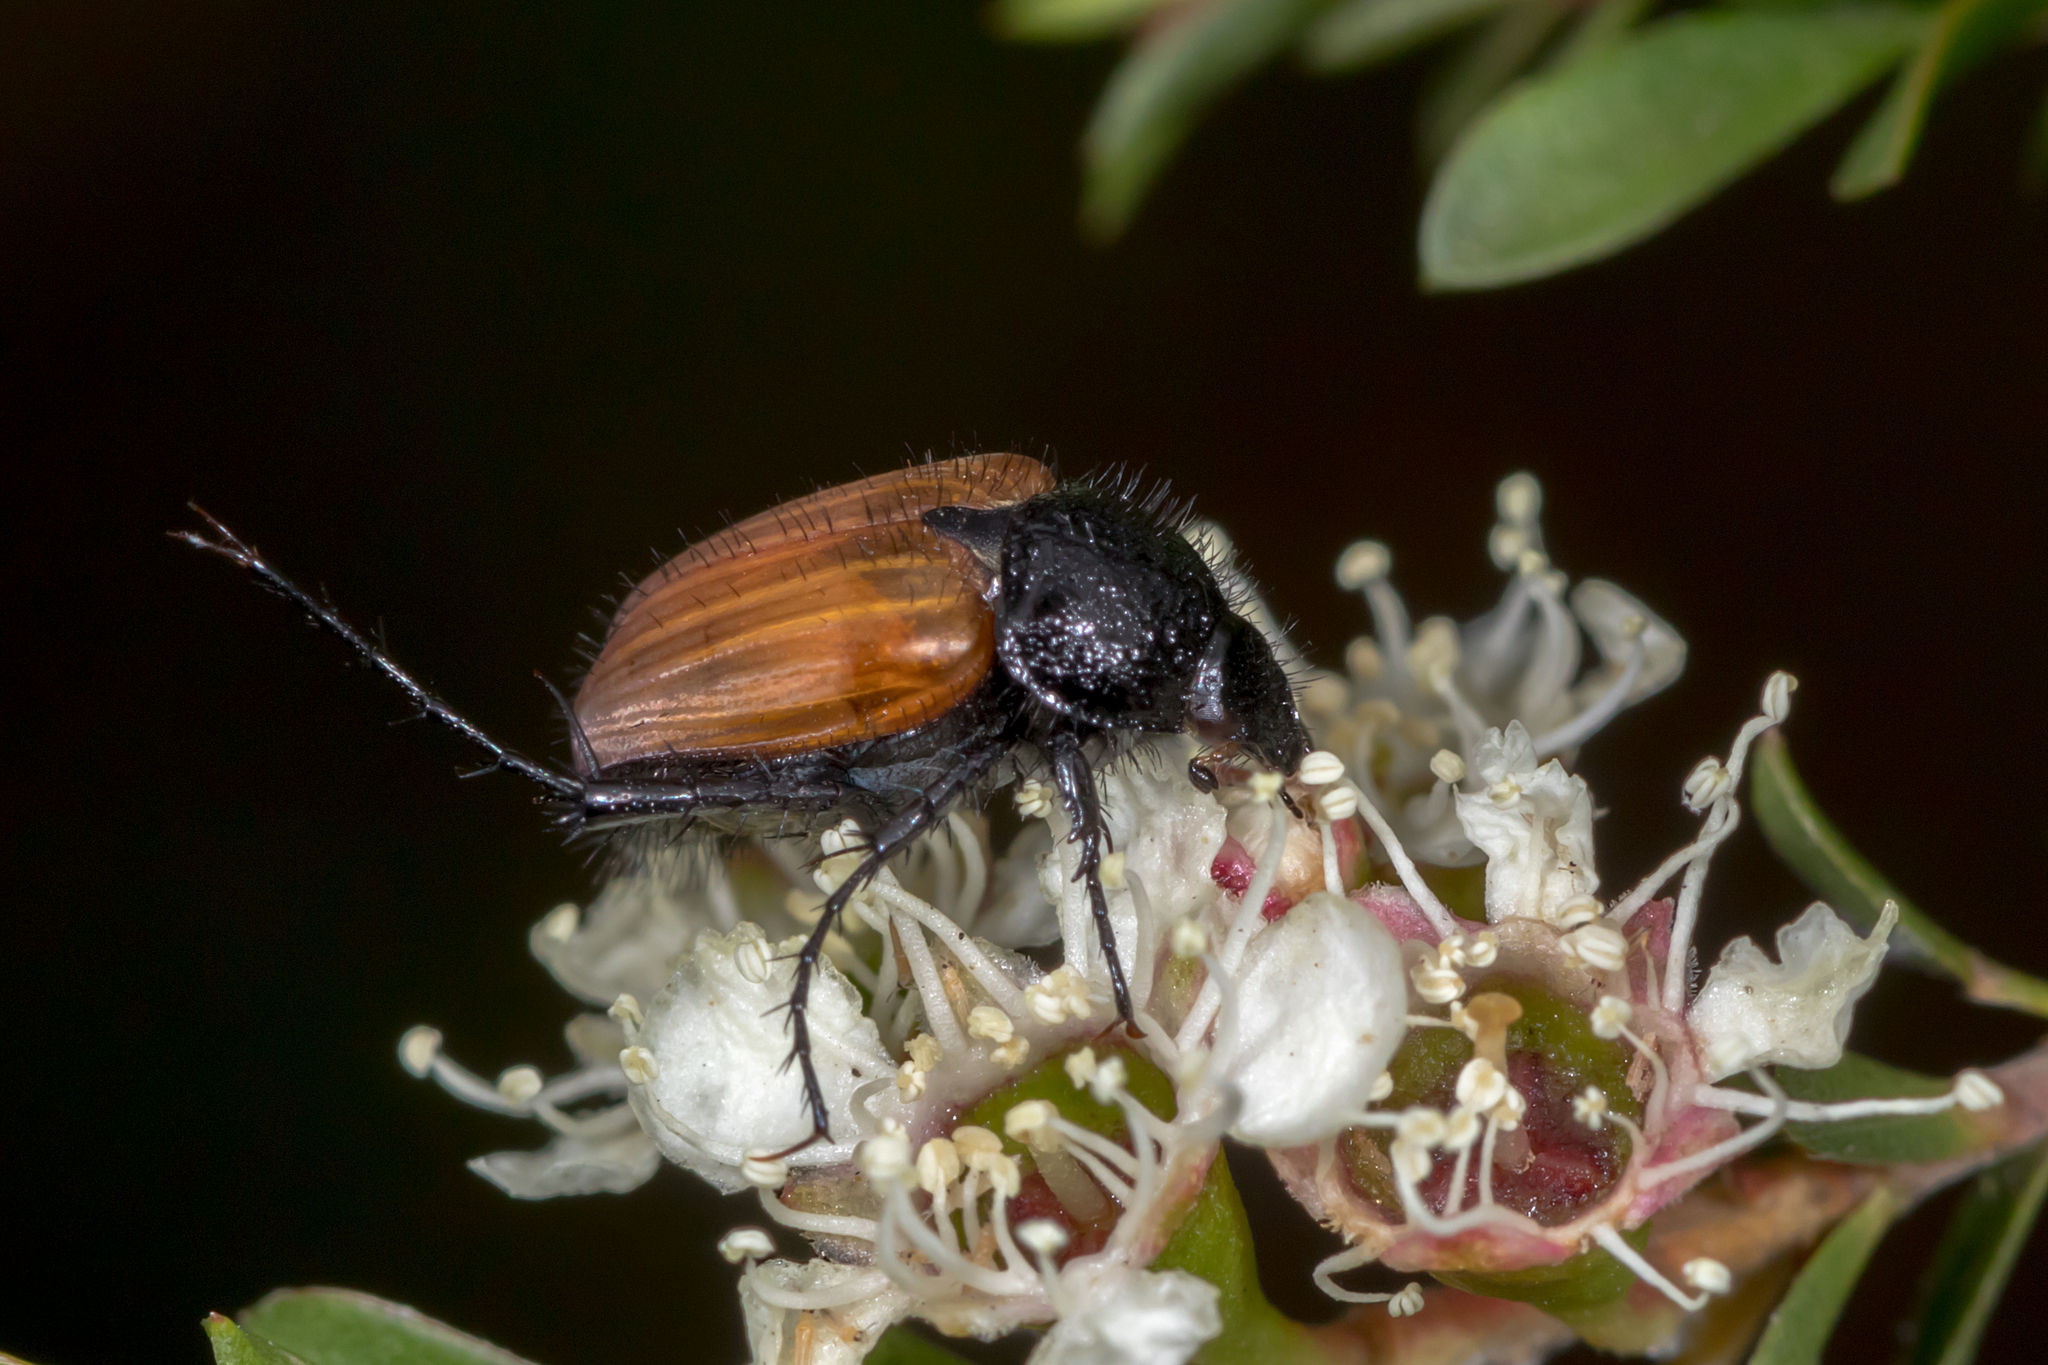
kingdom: Animalia
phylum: Arthropoda
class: Insecta
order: Coleoptera
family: Scarabaeidae
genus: Phyllotocus
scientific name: Phyllotocus rufipennis
